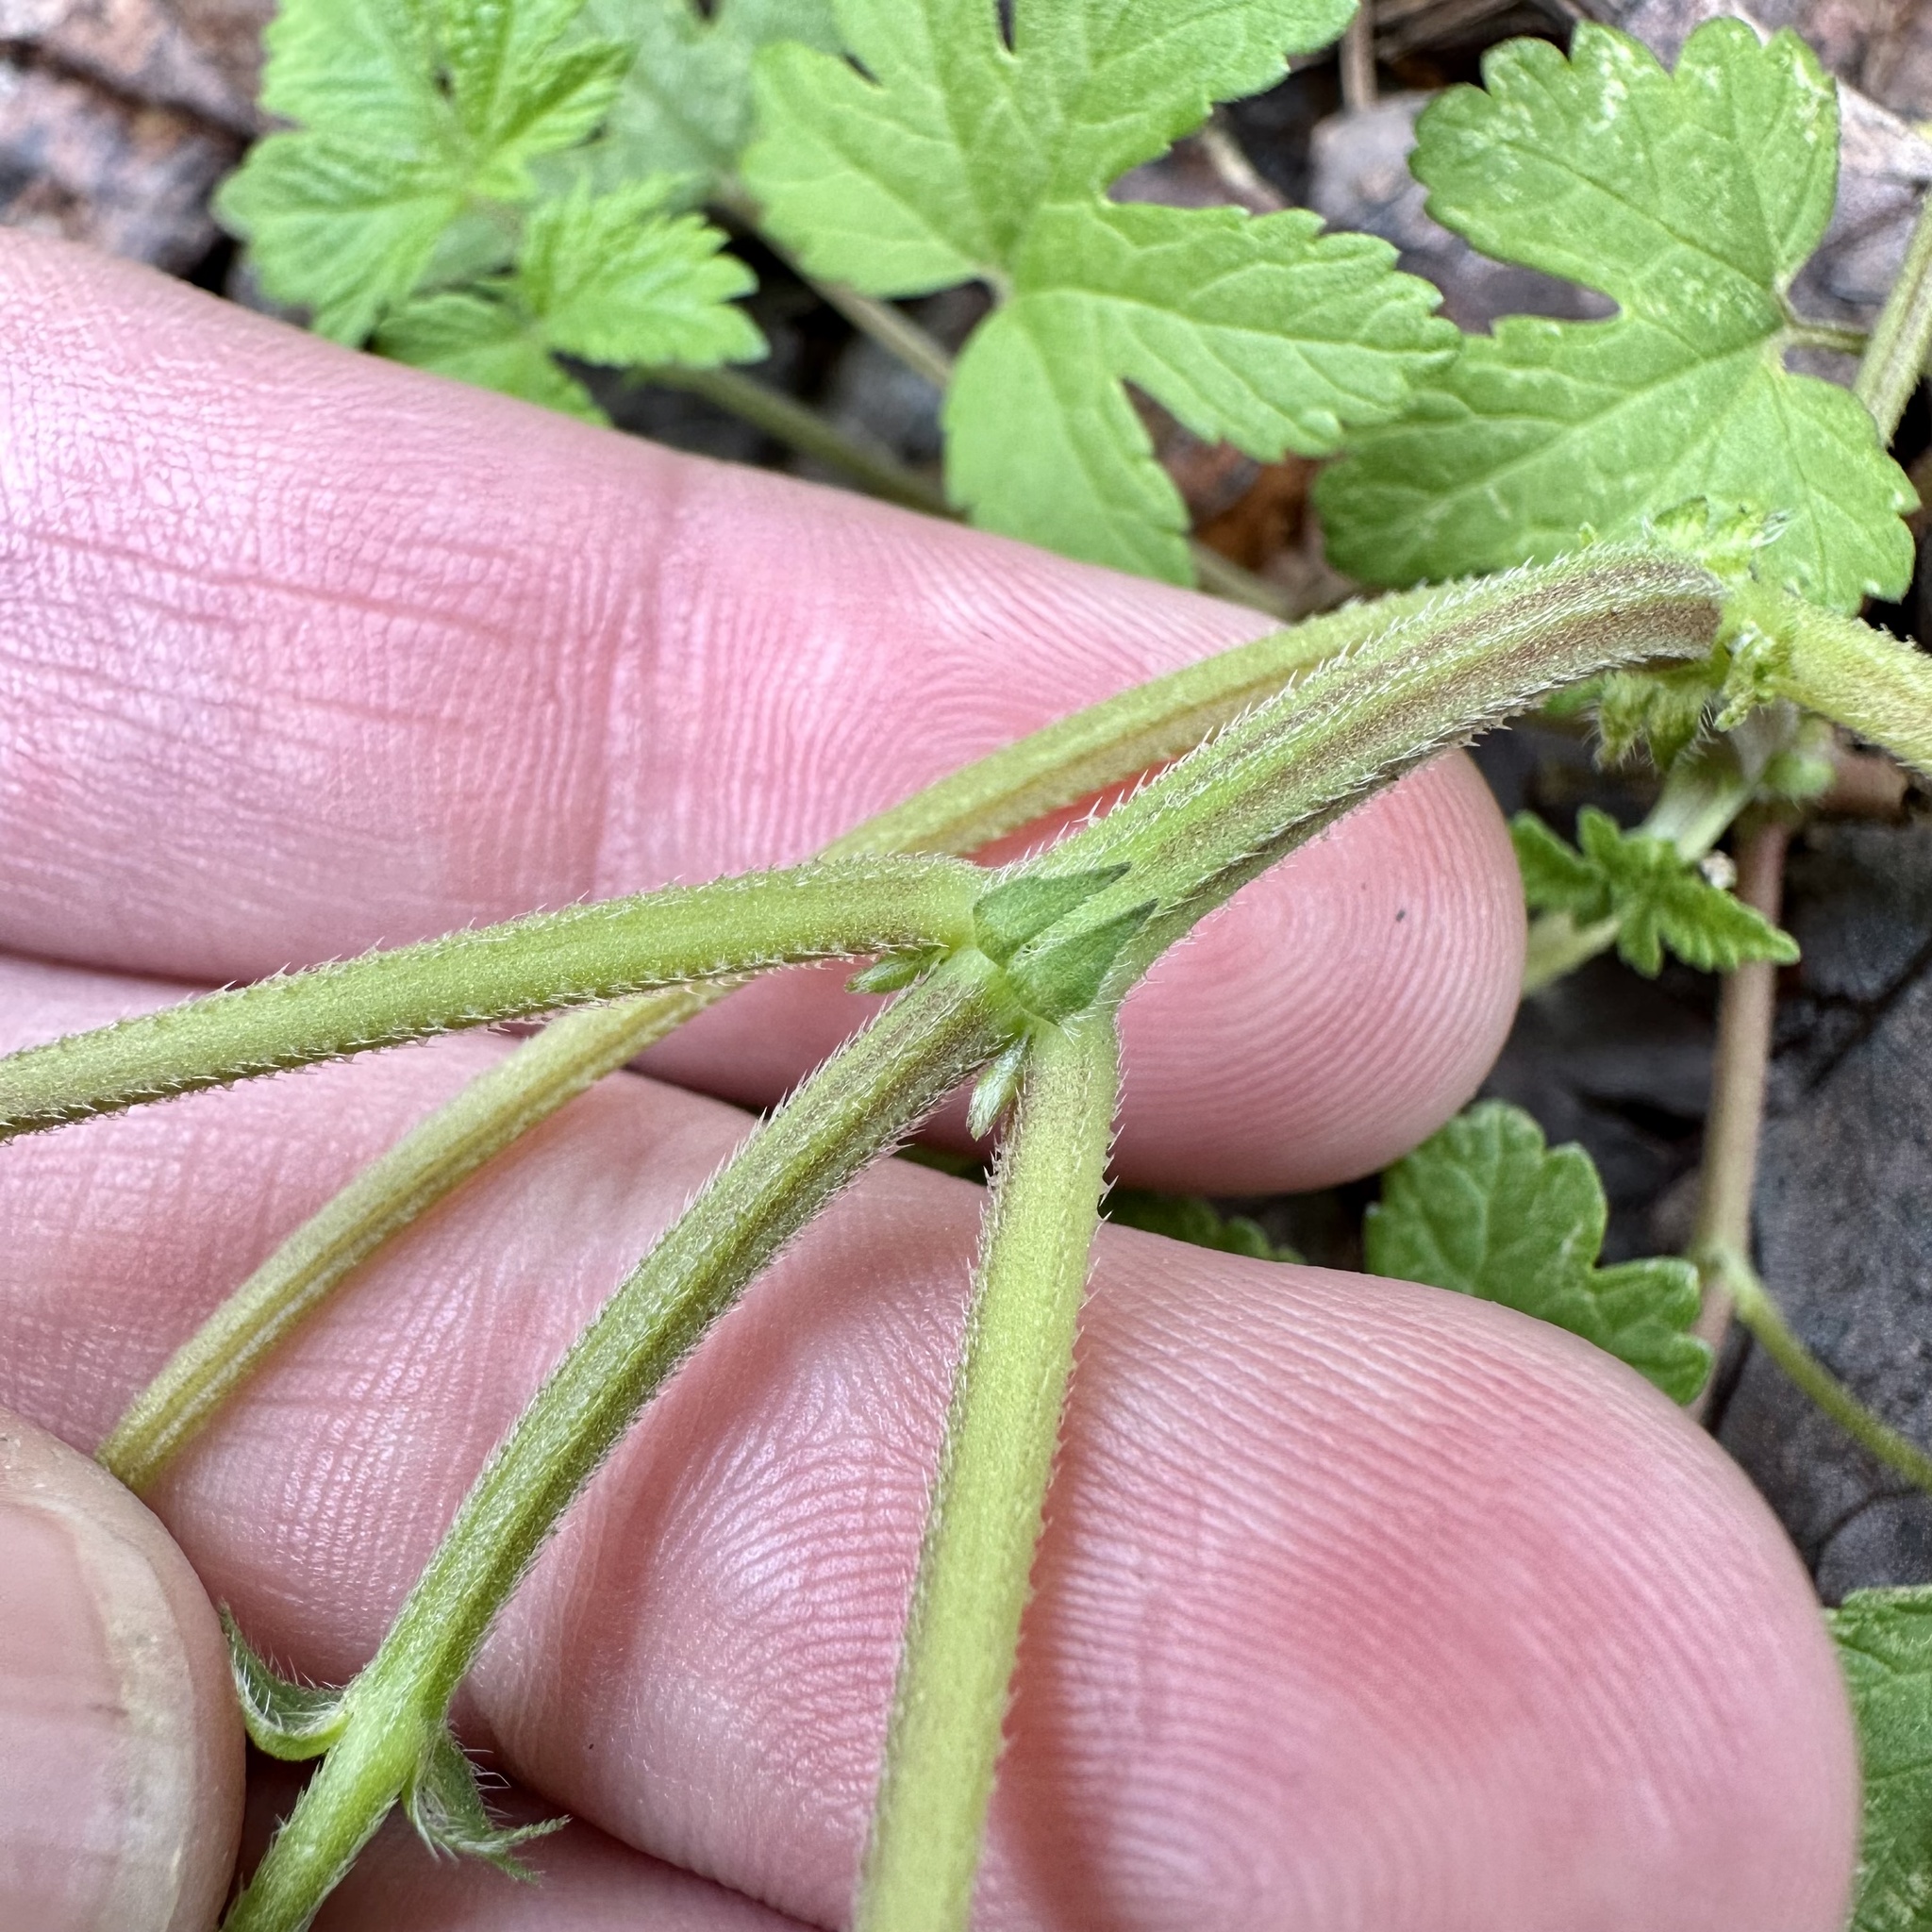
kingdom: Plantae
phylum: Tracheophyta
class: Magnoliopsida
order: Rosales
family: Cannabaceae
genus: Humulus
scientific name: Humulus scandens
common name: Japanese hop
